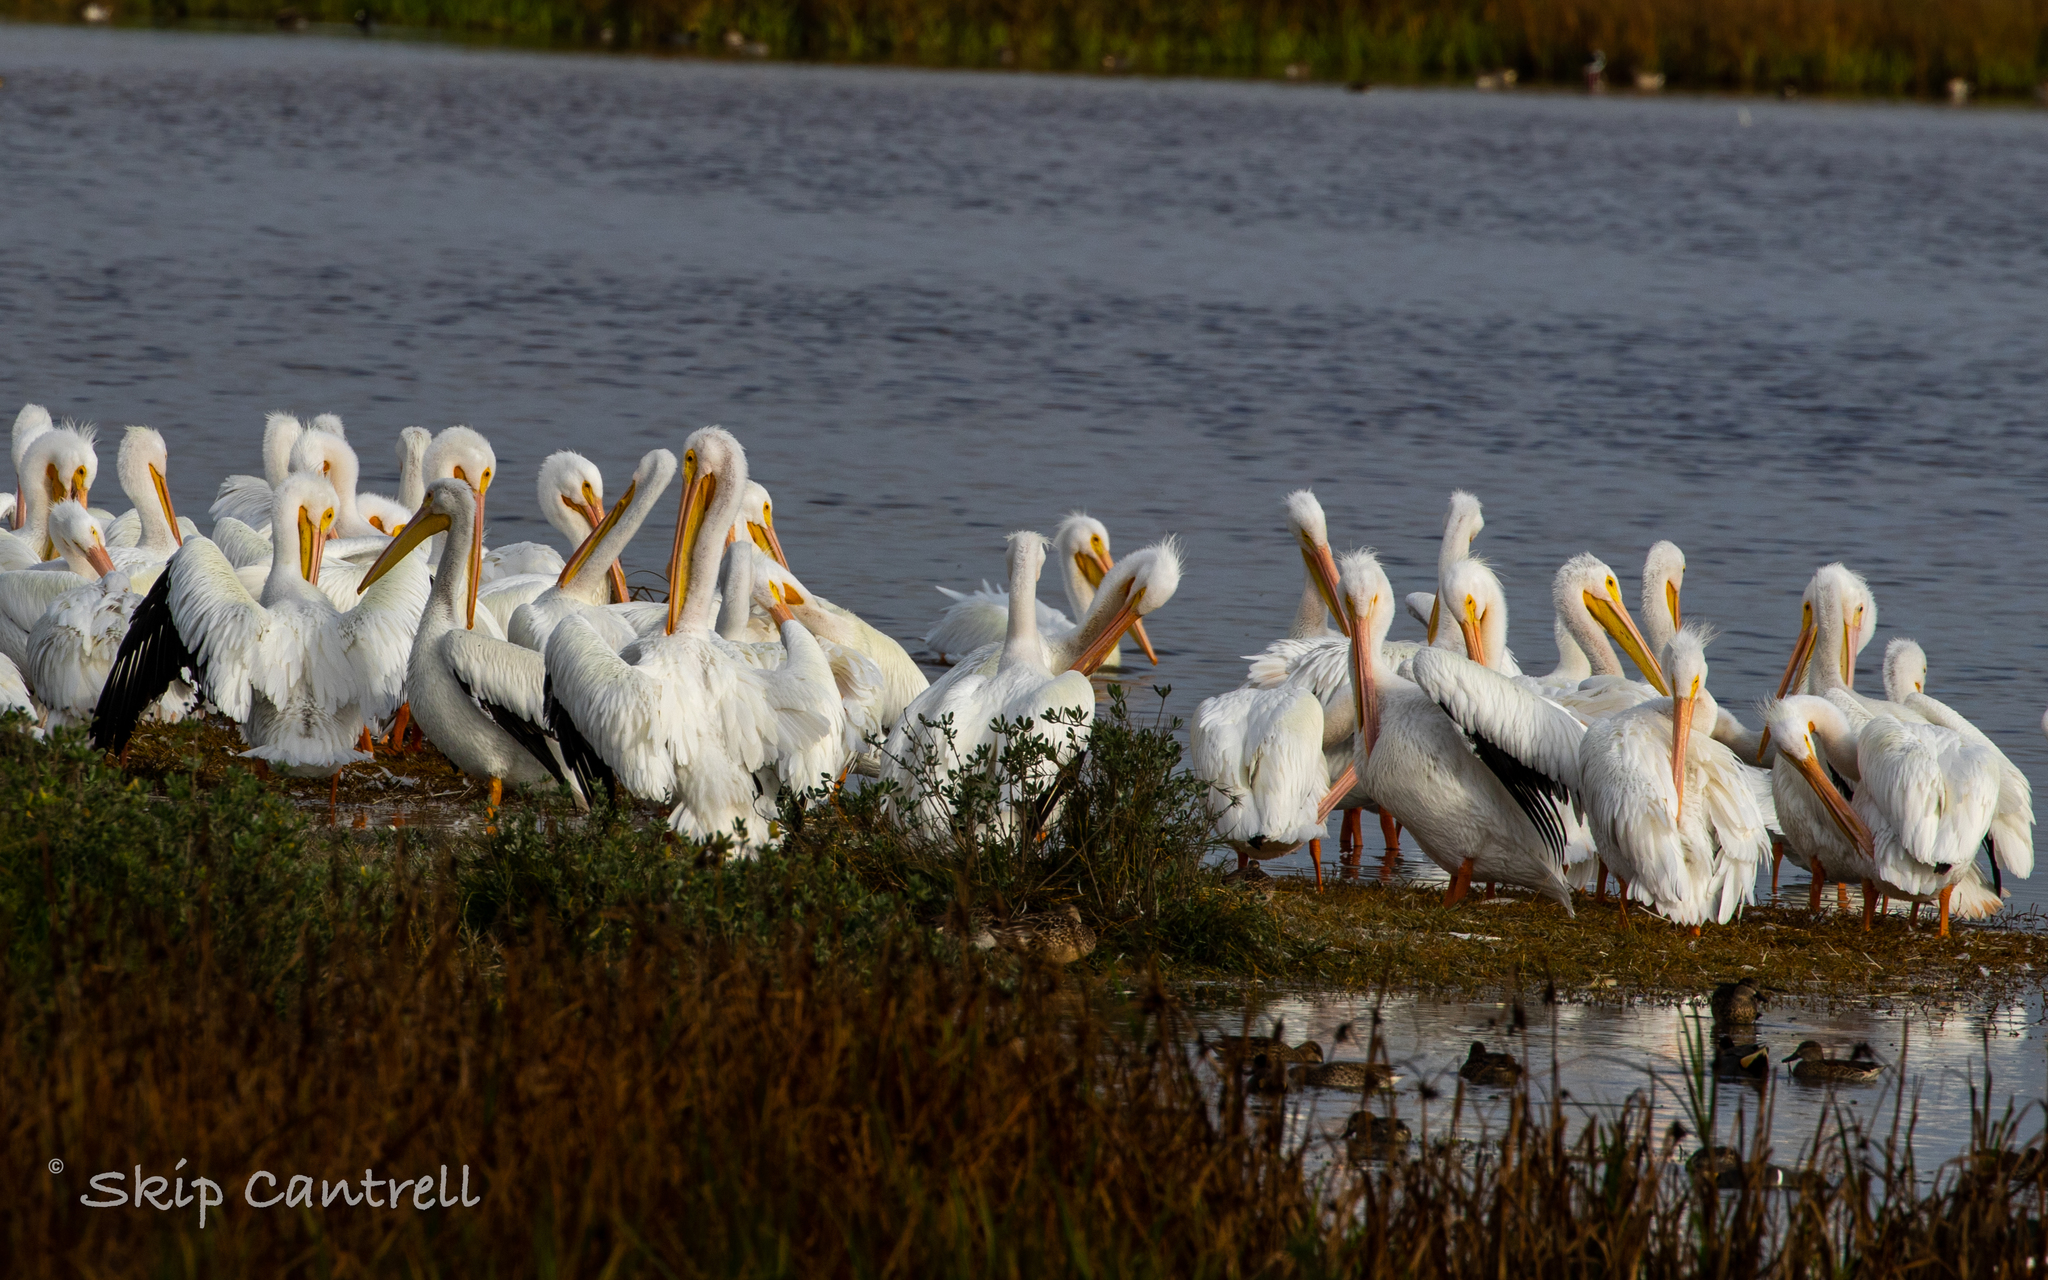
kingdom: Animalia
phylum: Chordata
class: Aves
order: Pelecaniformes
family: Pelecanidae
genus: Pelecanus
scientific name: Pelecanus erythrorhynchos
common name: American white pelican
